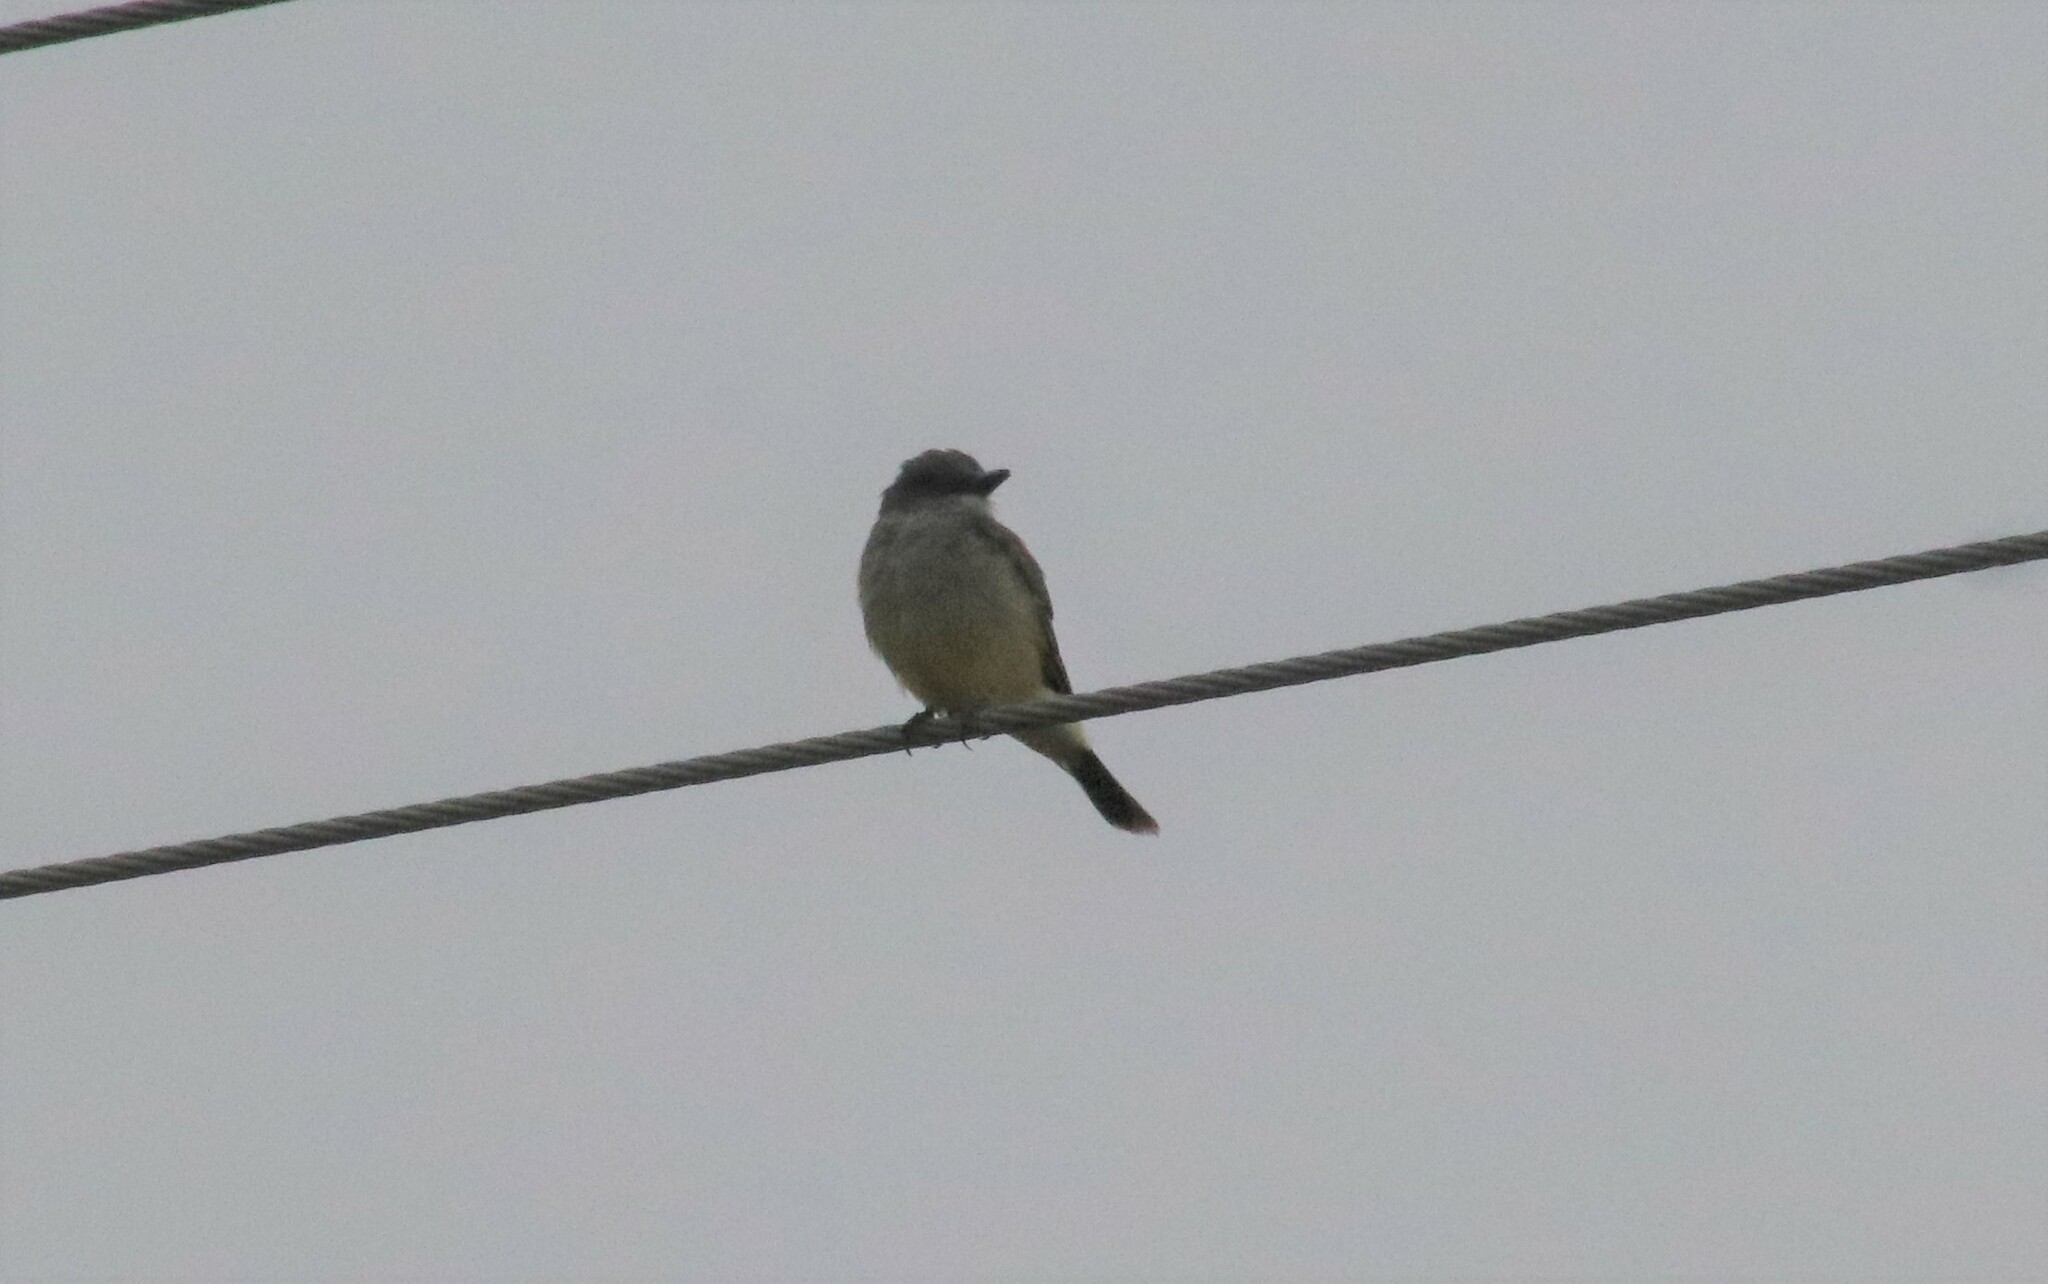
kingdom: Animalia
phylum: Chordata
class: Aves
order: Passeriformes
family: Tyrannidae
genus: Tyrannus
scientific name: Tyrannus vociferans
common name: Cassin's kingbird
